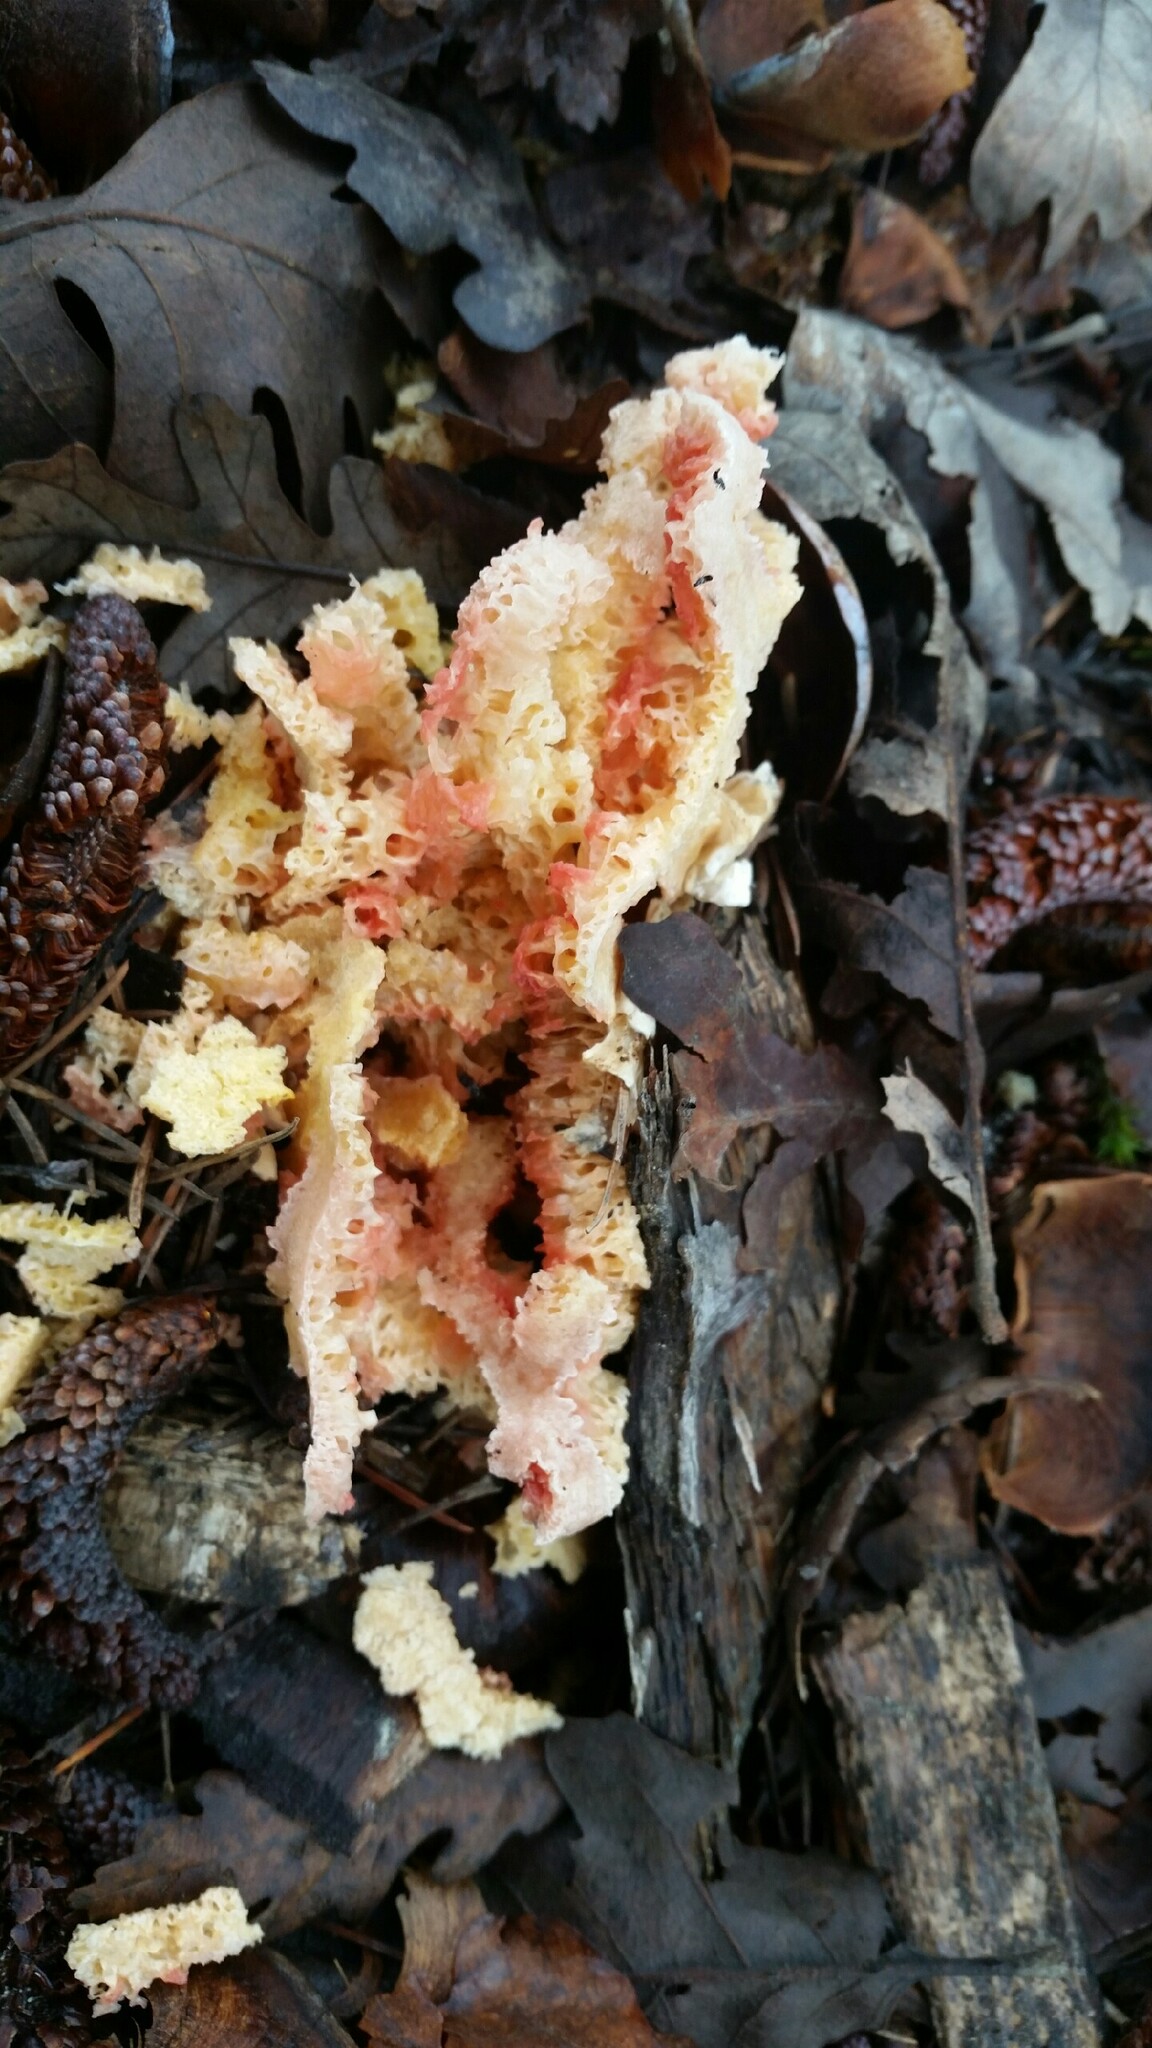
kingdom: Fungi
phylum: Basidiomycota
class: Agaricomycetes
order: Phallales
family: Phallaceae
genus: Clathrus
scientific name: Clathrus ruber
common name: Red cage
